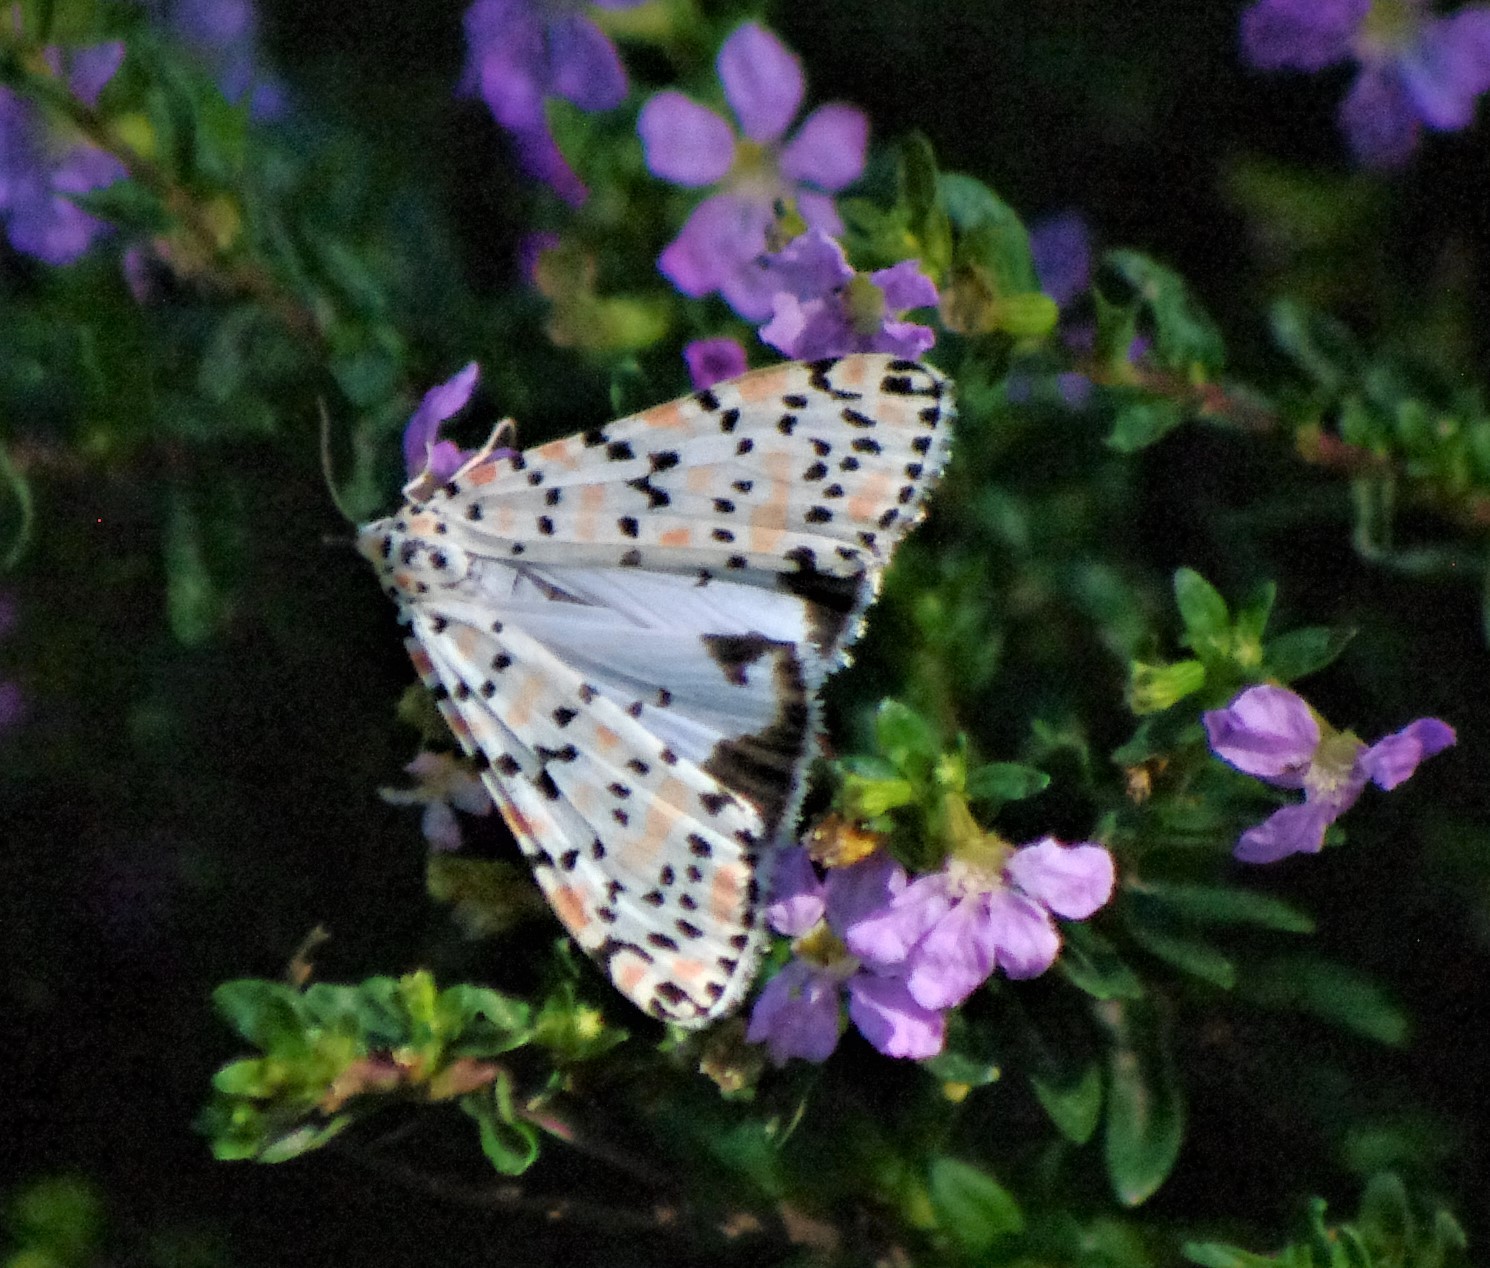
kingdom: Animalia
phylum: Arthropoda
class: Insecta
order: Lepidoptera
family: Erebidae
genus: Utetheisa
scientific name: Utetheisa pulchella
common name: Crimson speckled
